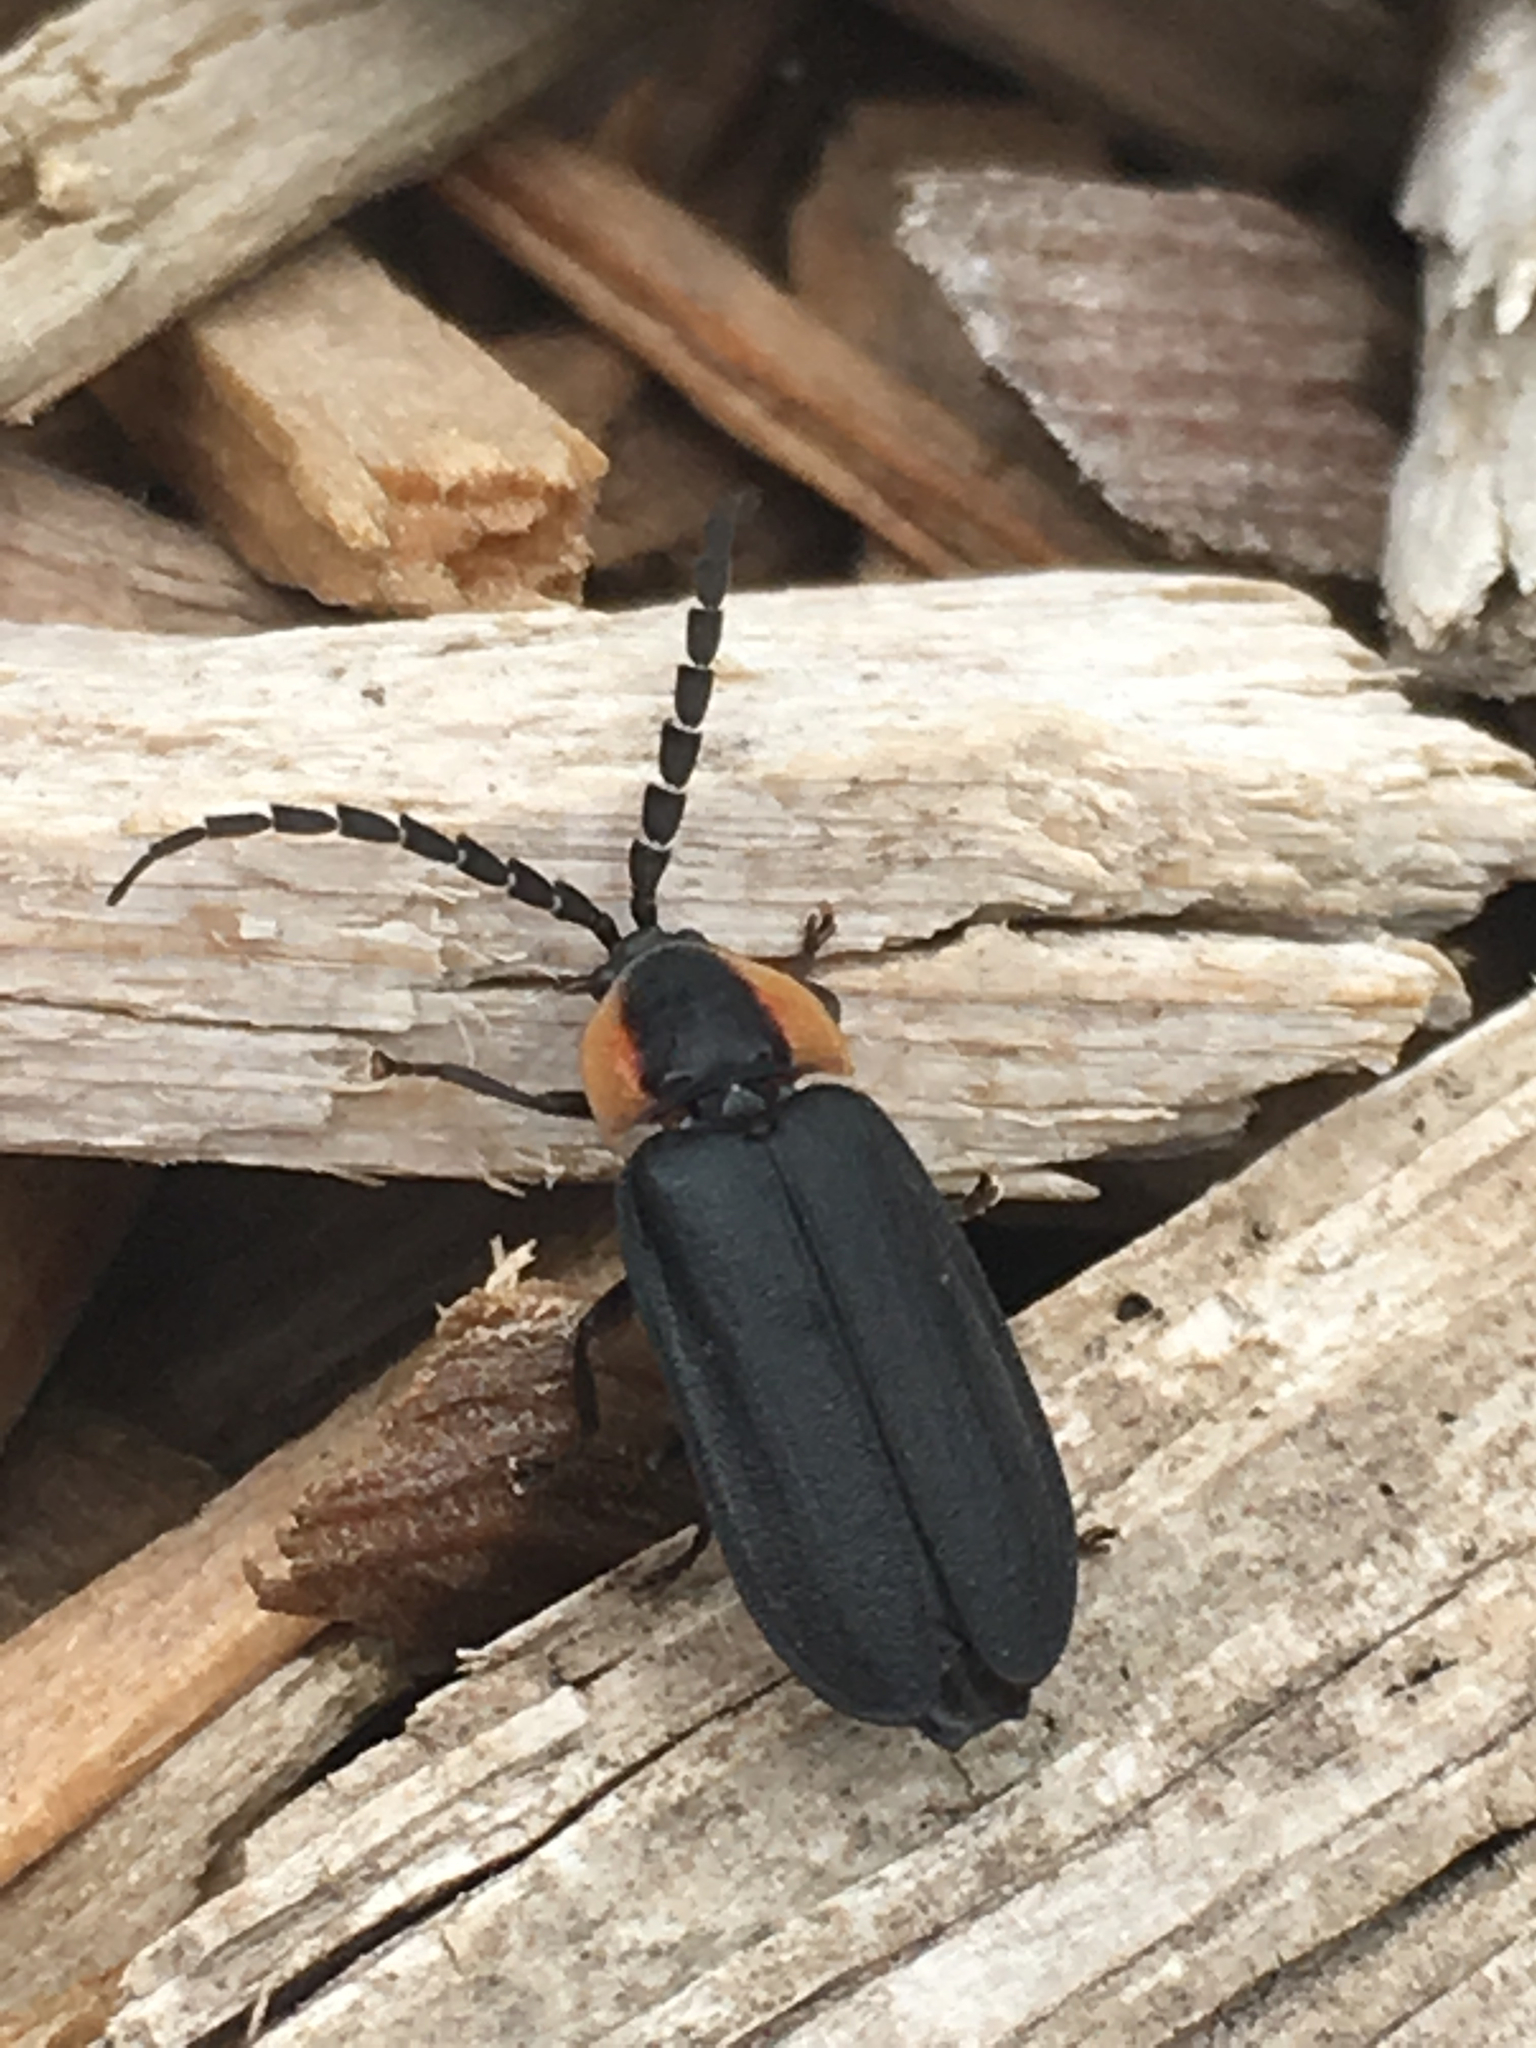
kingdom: Animalia
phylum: Arthropoda
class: Insecta
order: Coleoptera
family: Lampyridae
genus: Lucidota
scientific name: Lucidota atra
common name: Black firefly
